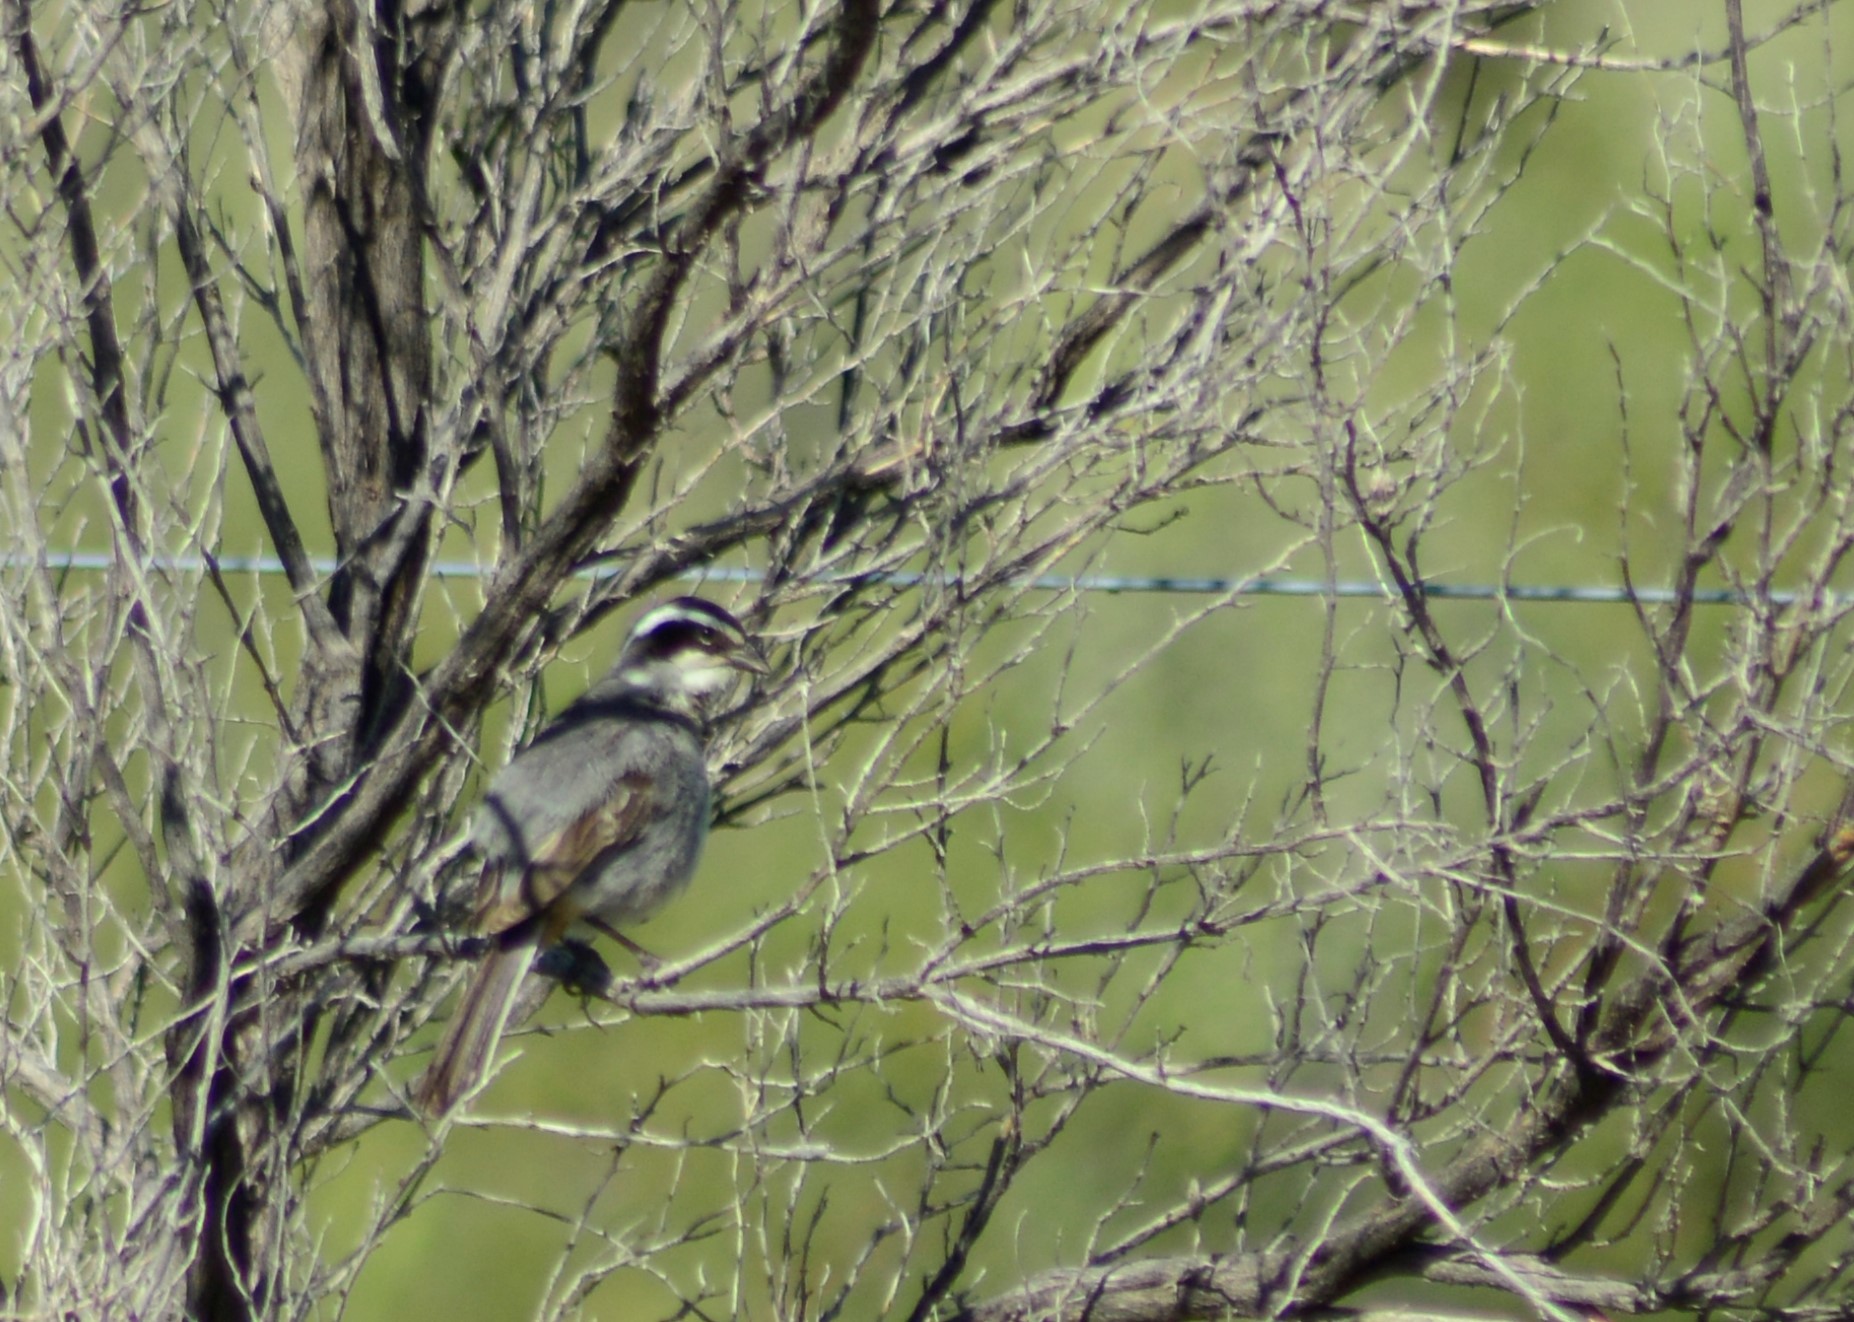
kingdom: Animalia
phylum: Chordata
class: Aves
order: Passeriformes
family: Thraupidae
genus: Microspingus
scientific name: Microspingus torquatus
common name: Ringed warbling-finch
